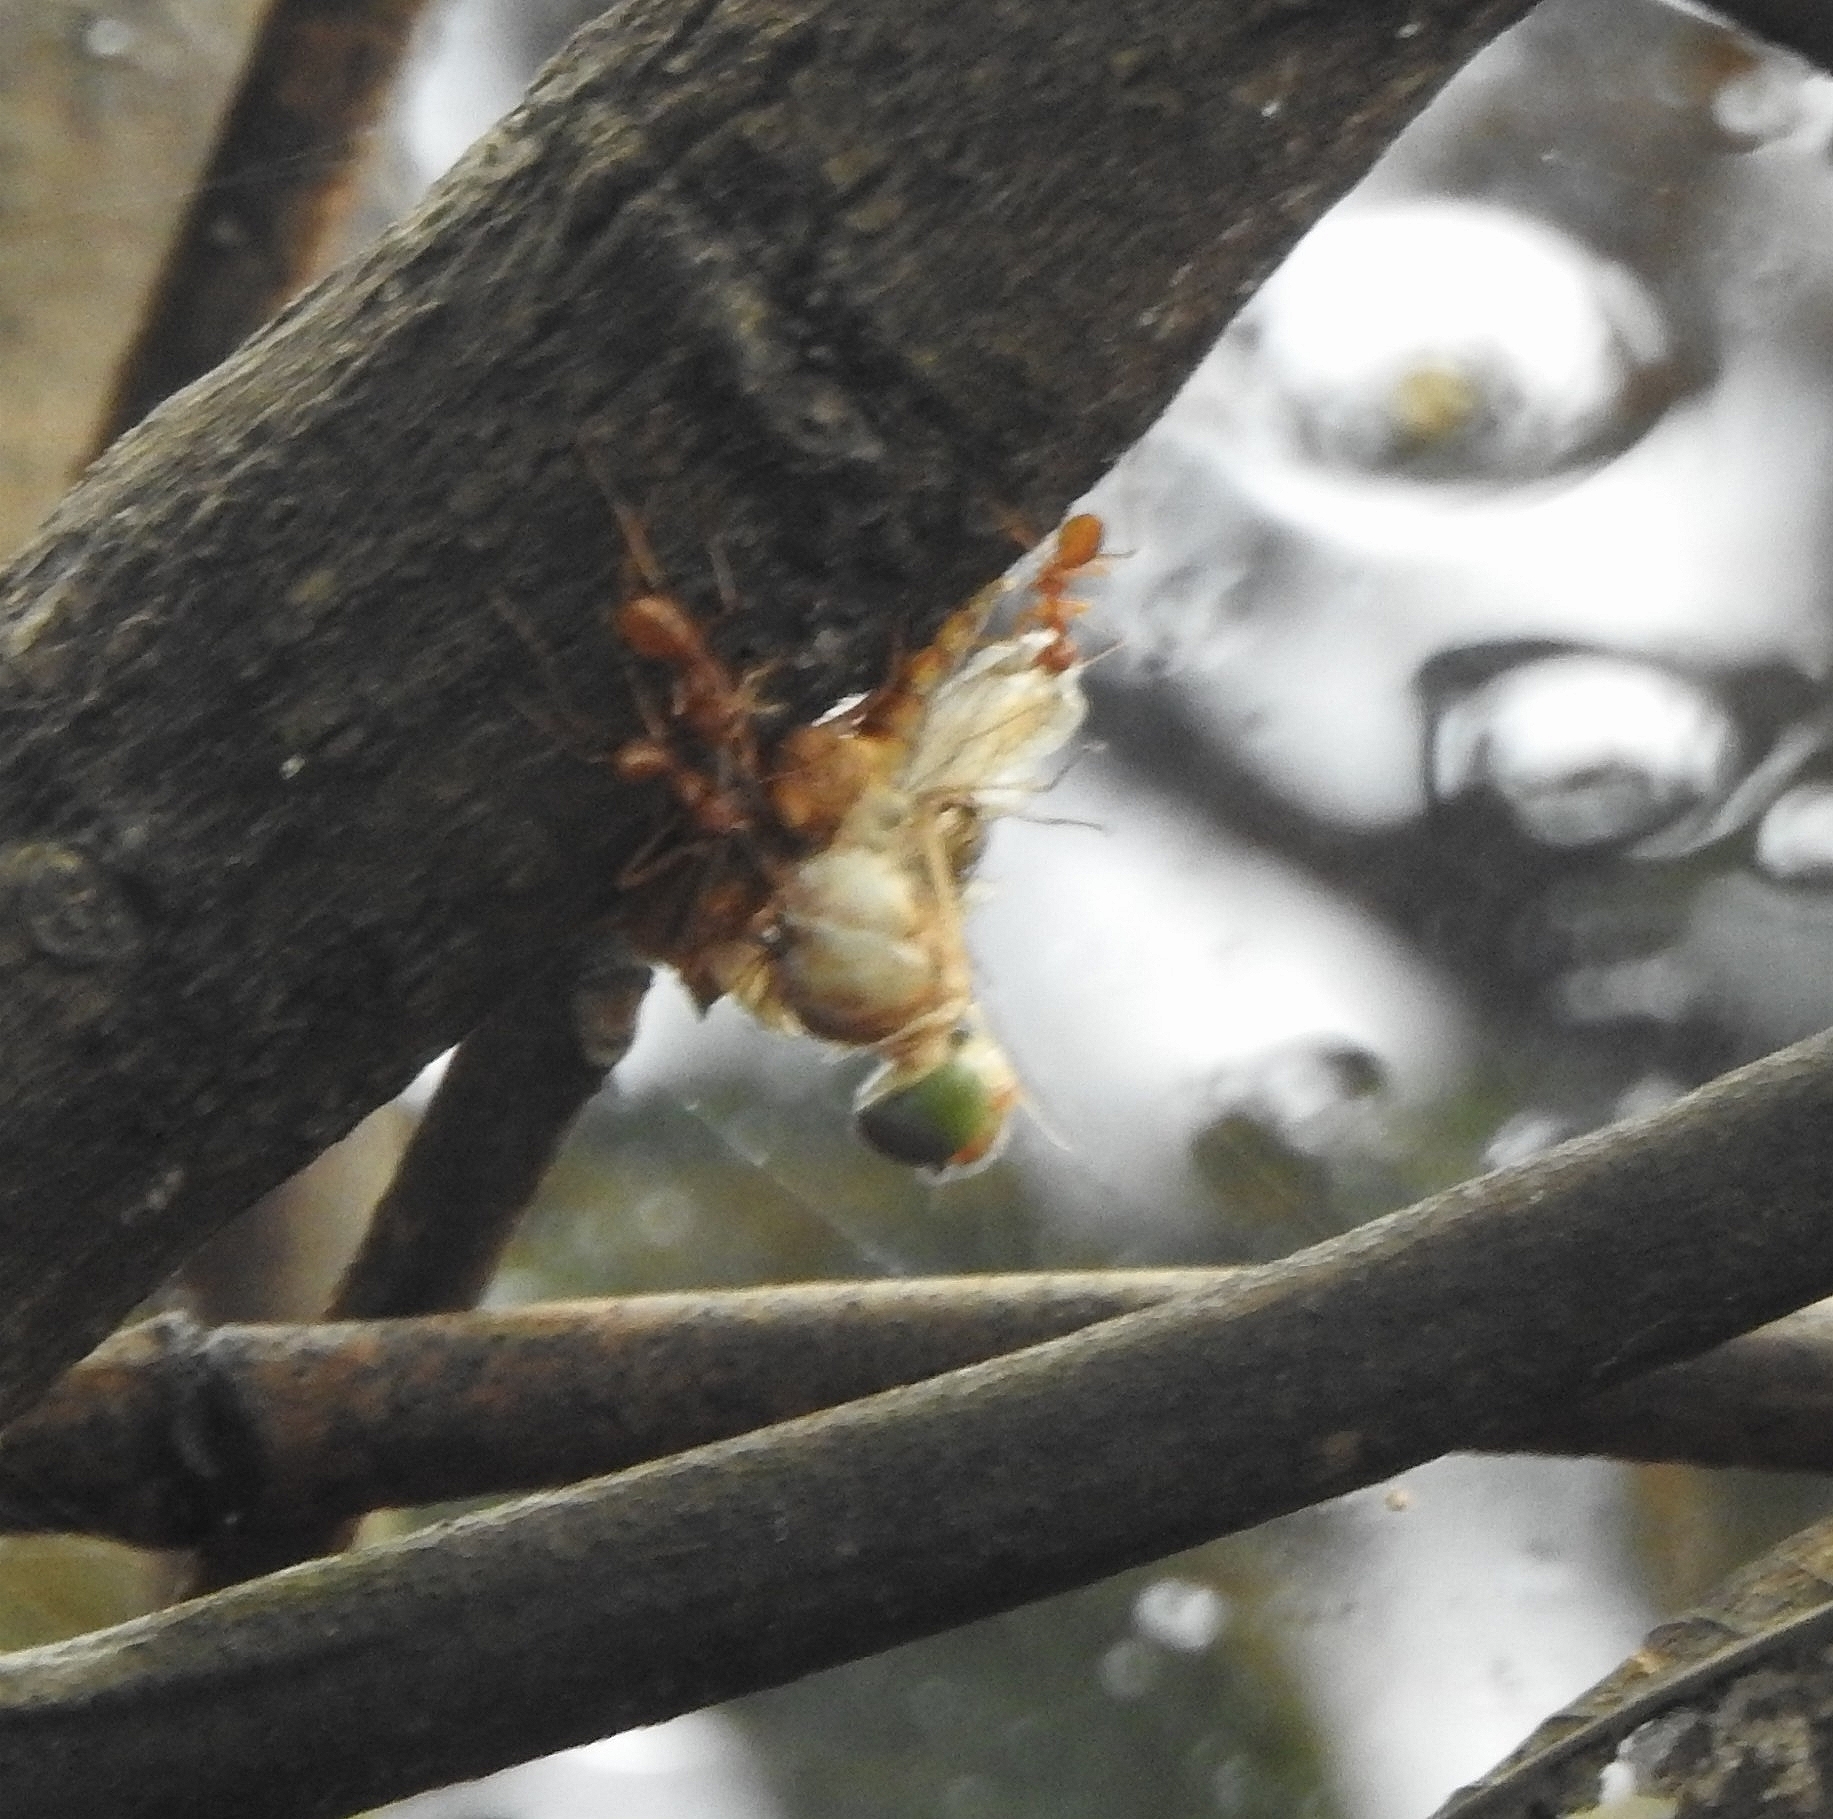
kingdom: Animalia
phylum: Arthropoda
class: Insecta
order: Hymenoptera
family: Formicidae
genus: Oecophylla
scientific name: Oecophylla smaragdina
